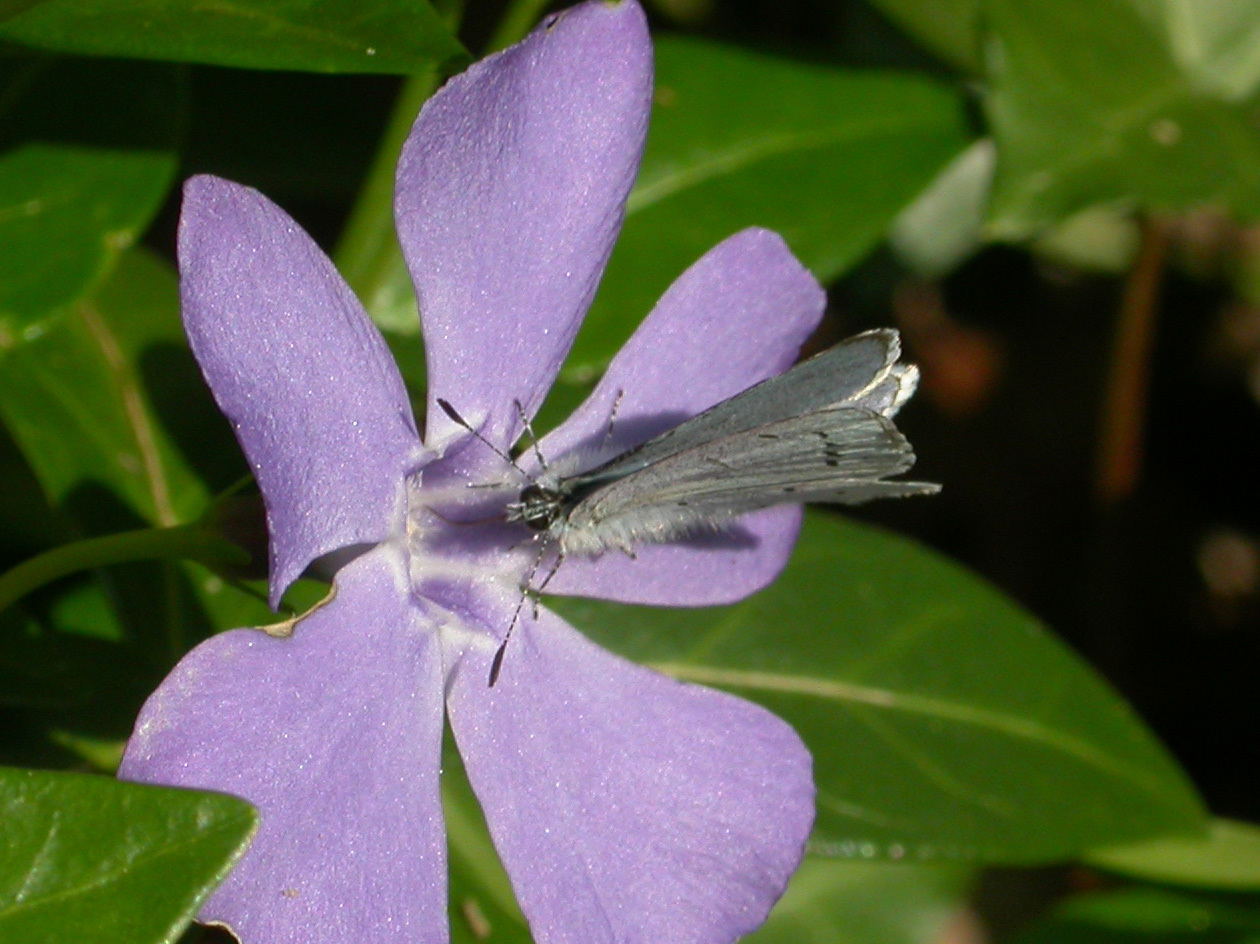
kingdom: Animalia
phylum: Arthropoda
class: Insecta
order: Lepidoptera
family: Lycaenidae
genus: Celastrina
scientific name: Celastrina argiolus
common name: Holly blue
